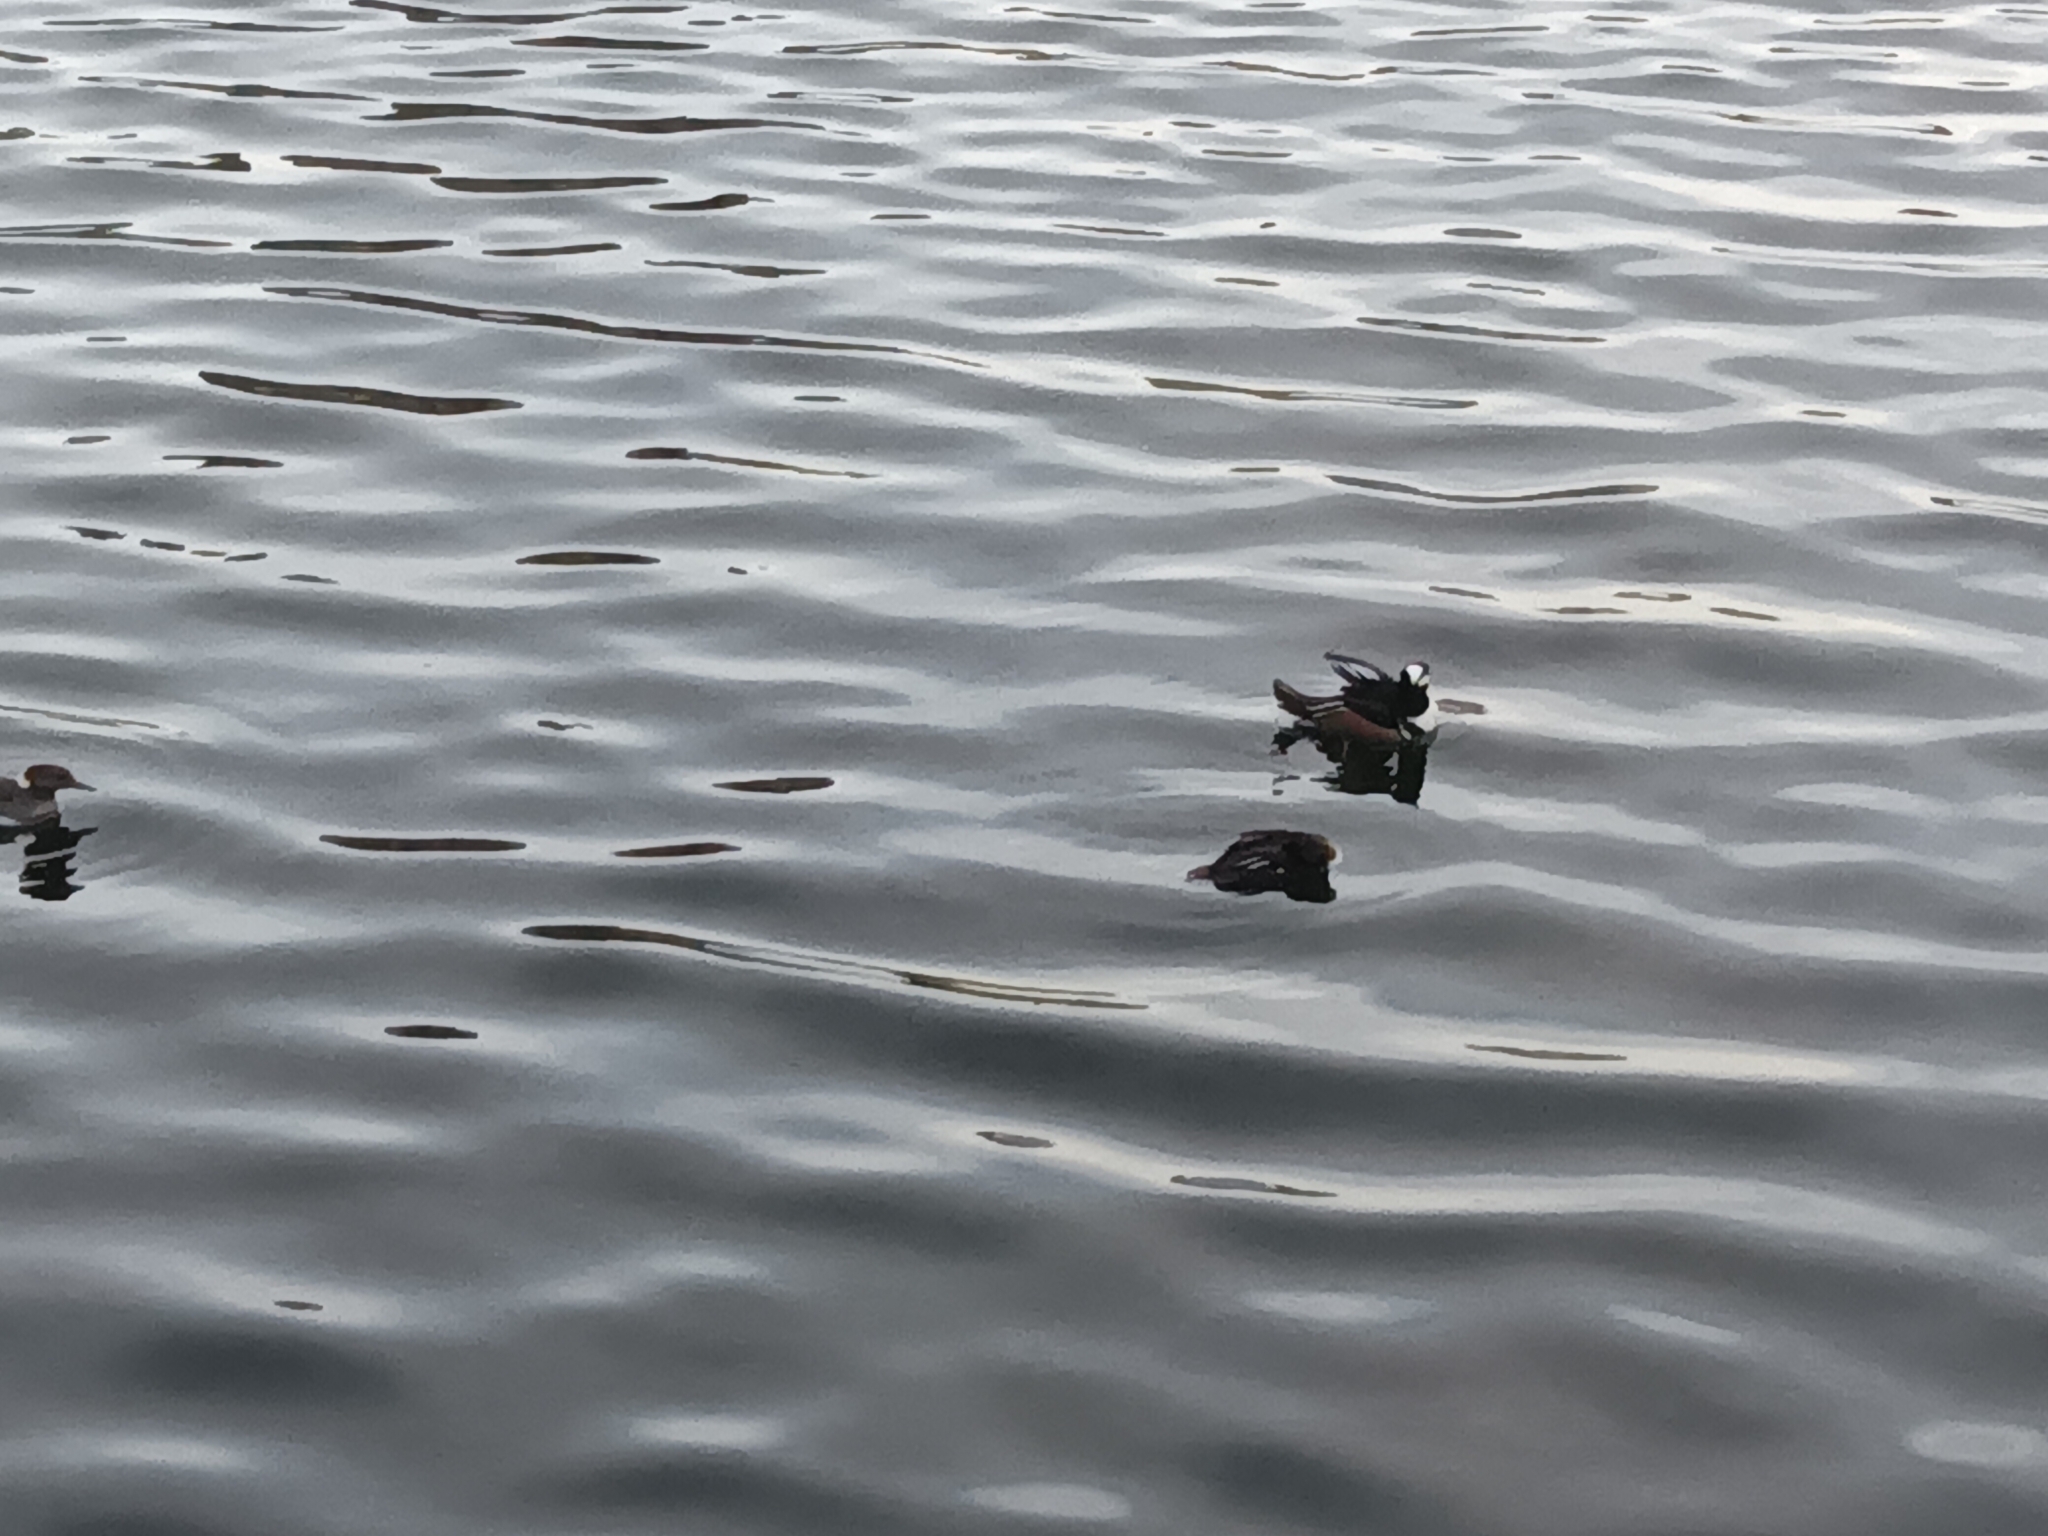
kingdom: Animalia
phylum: Chordata
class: Aves
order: Anseriformes
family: Anatidae
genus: Lophodytes
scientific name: Lophodytes cucullatus
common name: Hooded merganser
